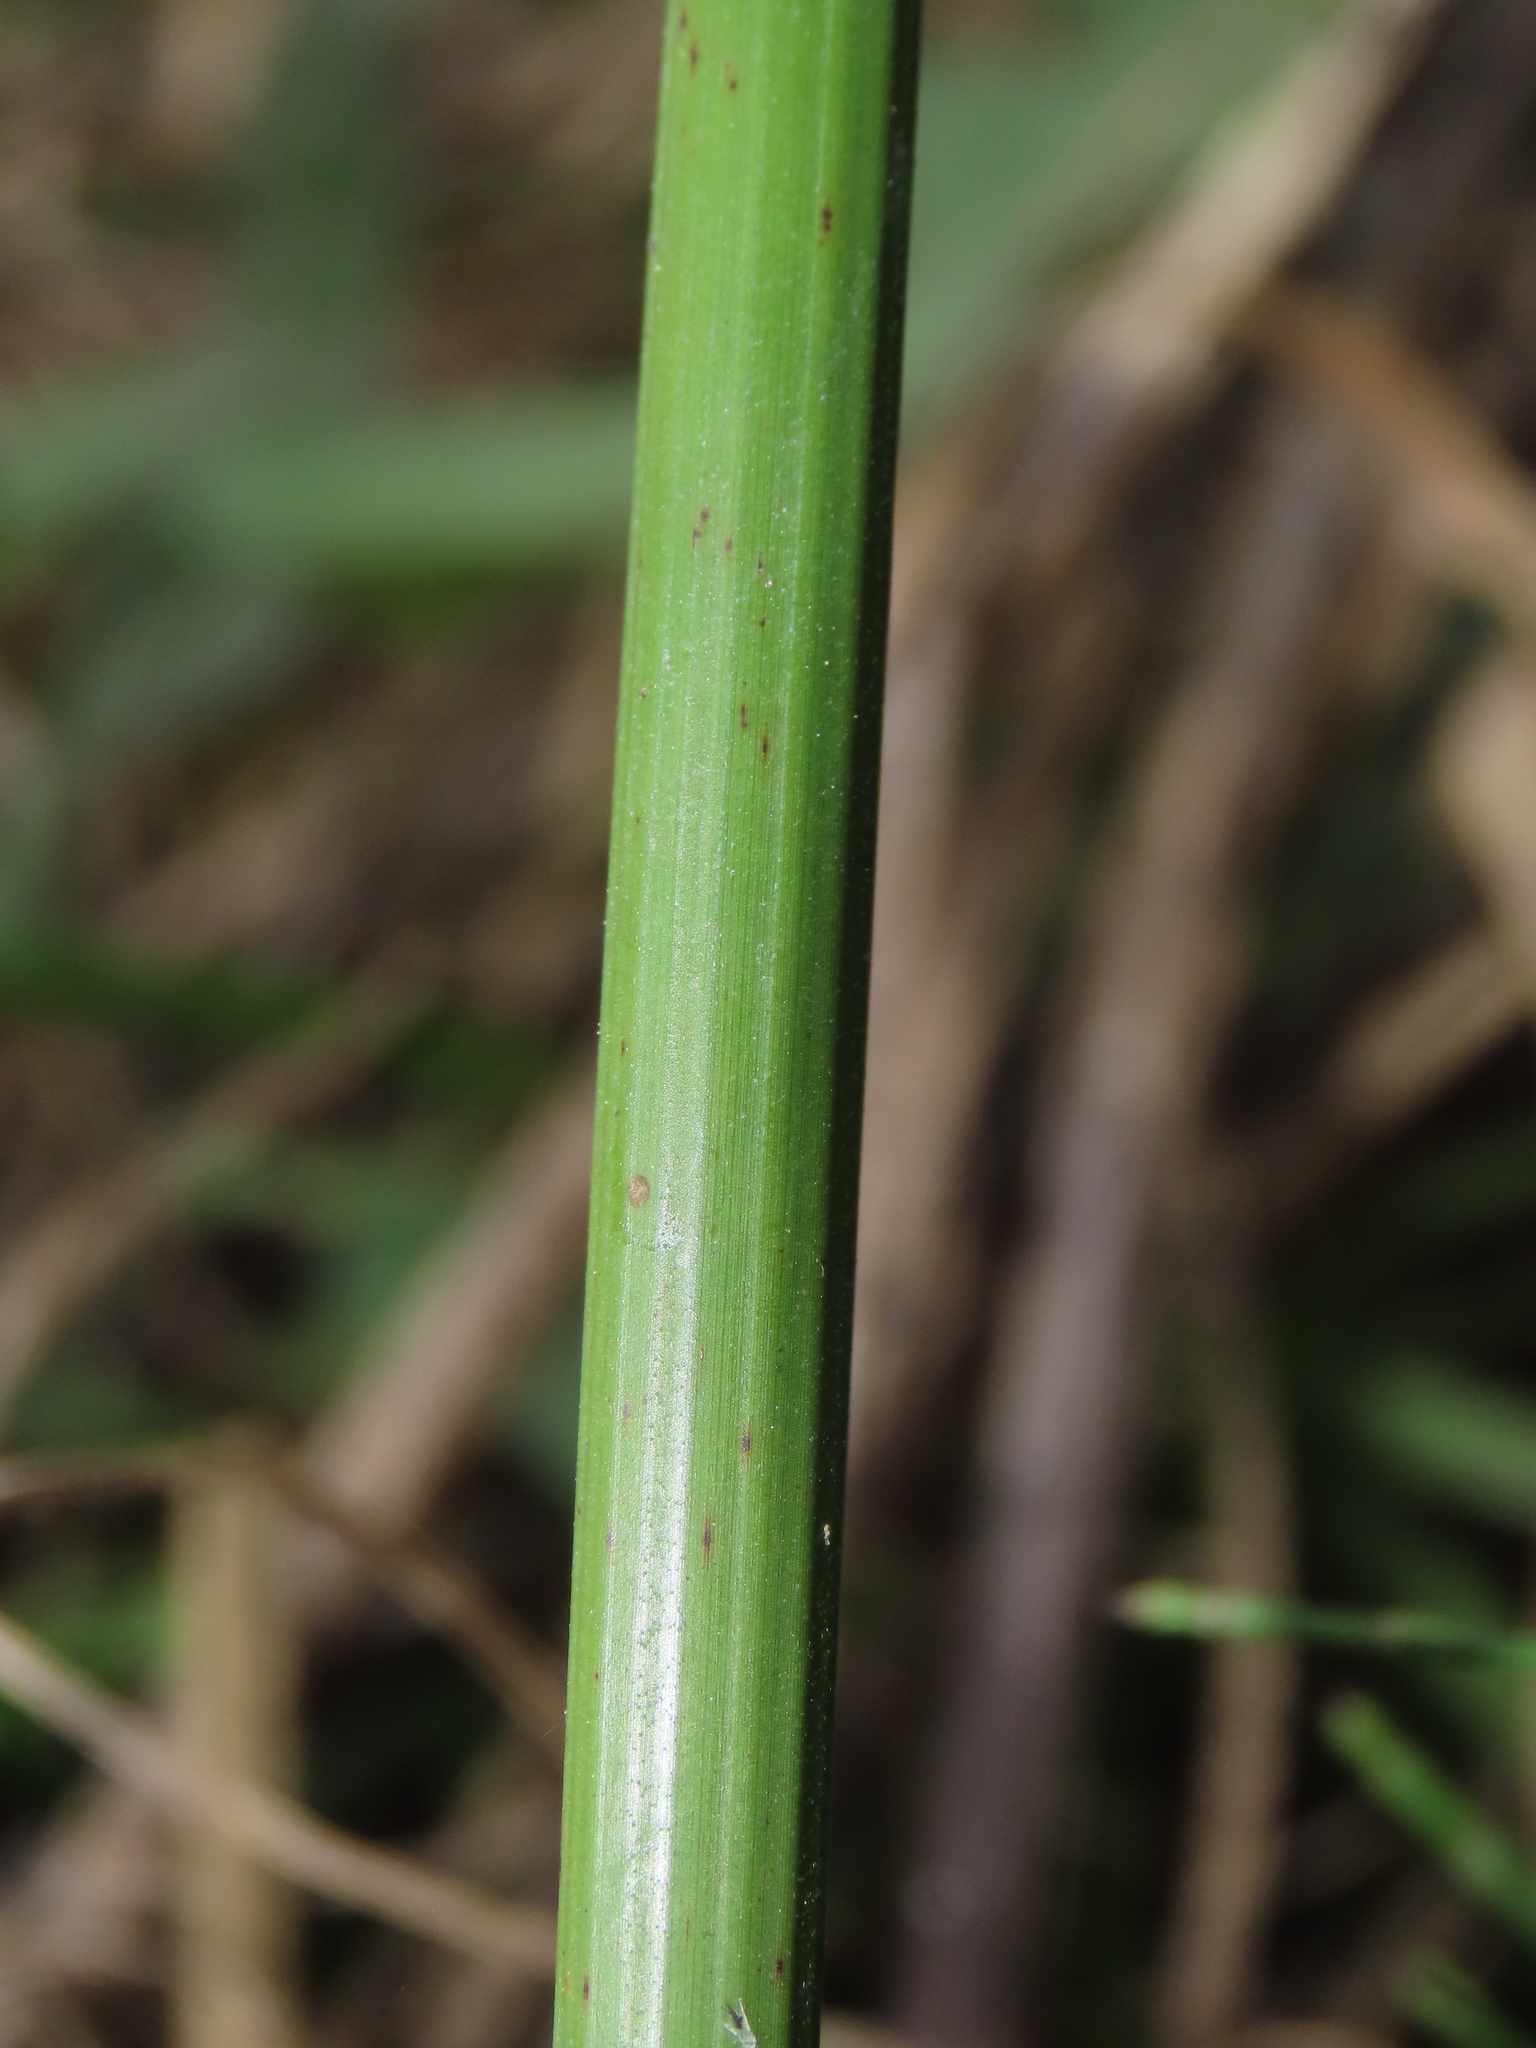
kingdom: Plantae
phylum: Tracheophyta
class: Liliopsida
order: Poales
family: Cyperaceae
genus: Cyperus
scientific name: Cyperus alternifolius
